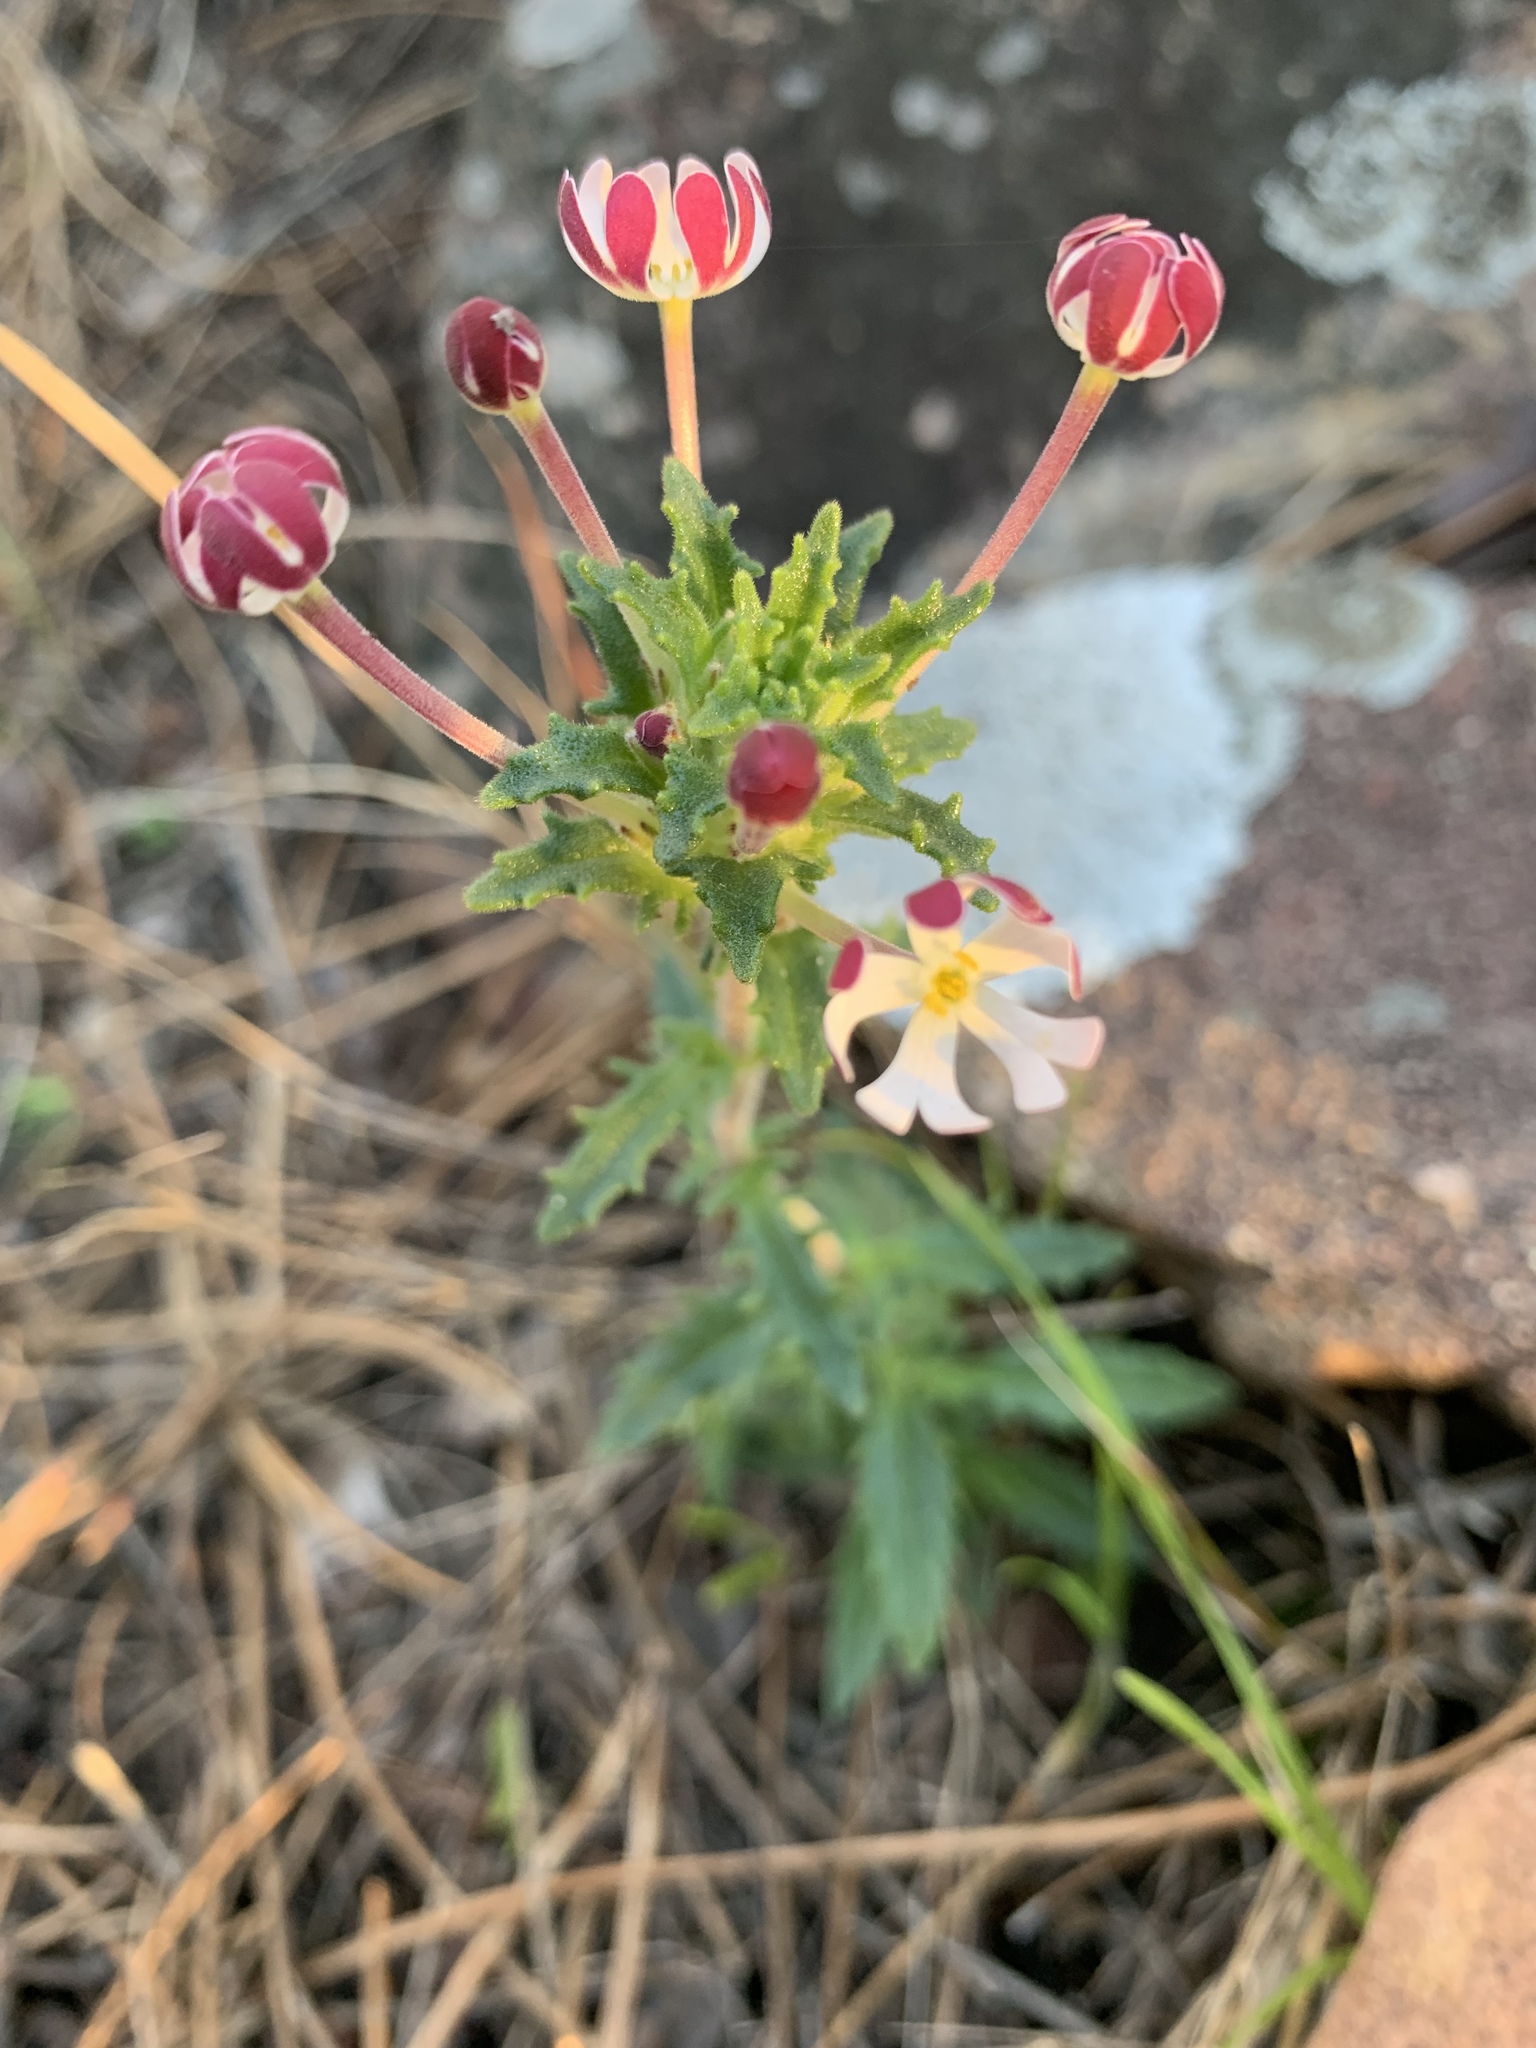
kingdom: Plantae
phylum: Tracheophyta
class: Magnoliopsida
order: Lamiales
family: Scrophulariaceae
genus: Zaluzianskya
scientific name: Zaluzianskya capensis
